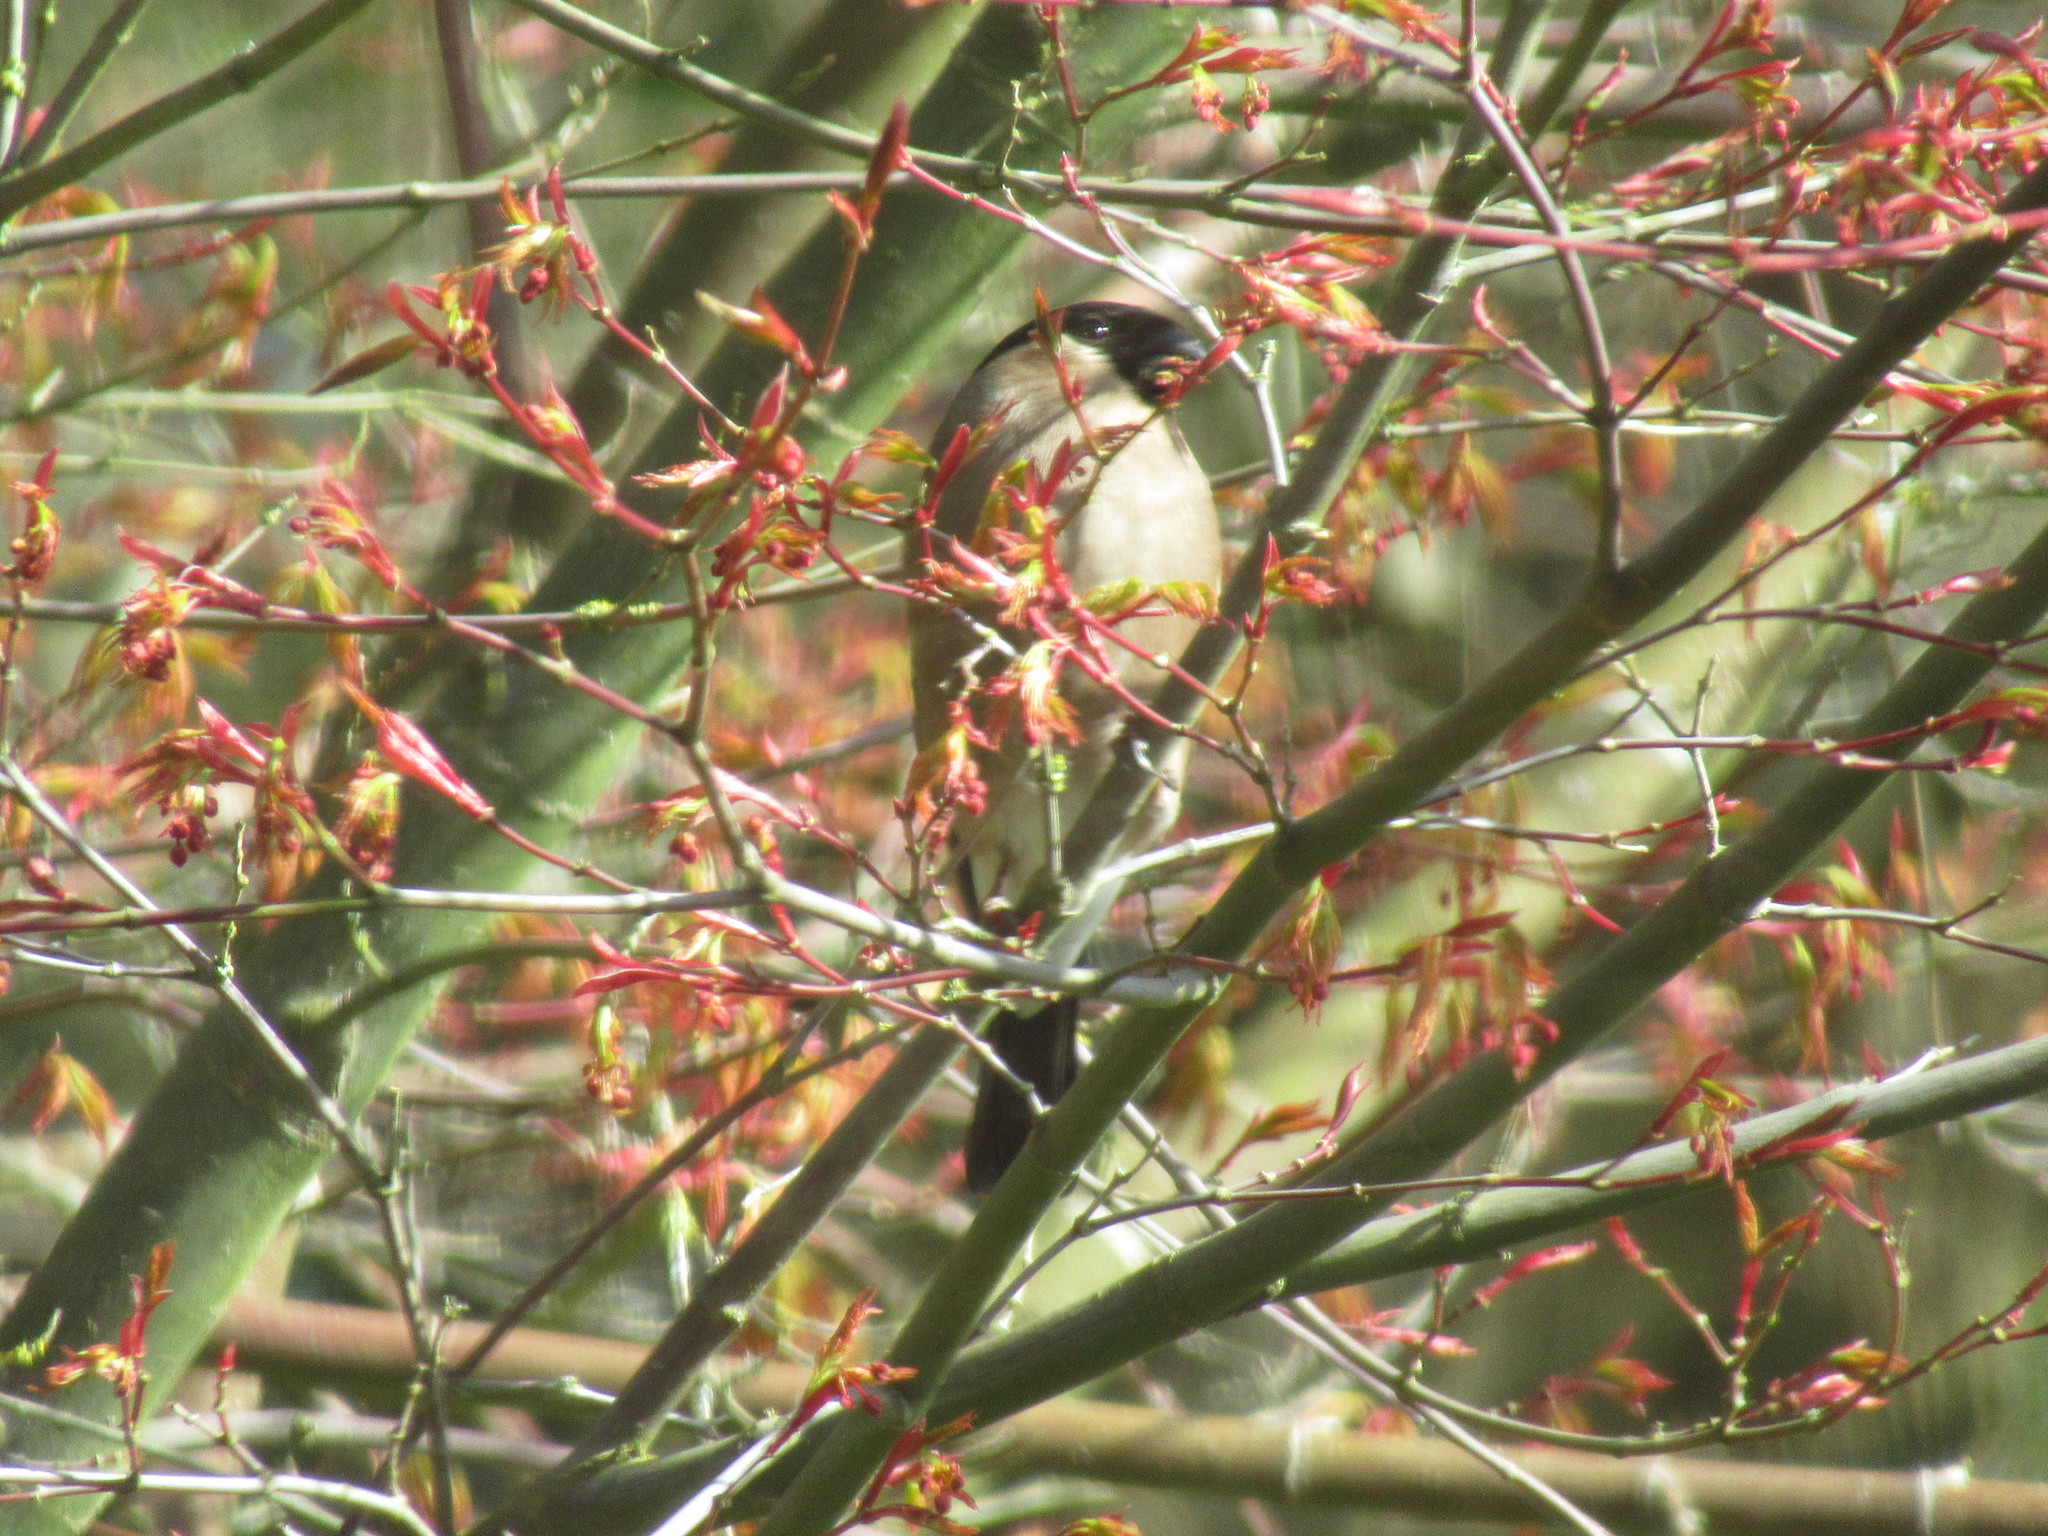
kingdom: Animalia
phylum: Chordata
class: Aves
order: Passeriformes
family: Fringillidae
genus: Pyrrhula
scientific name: Pyrrhula pyrrhula
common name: Eurasian bullfinch
